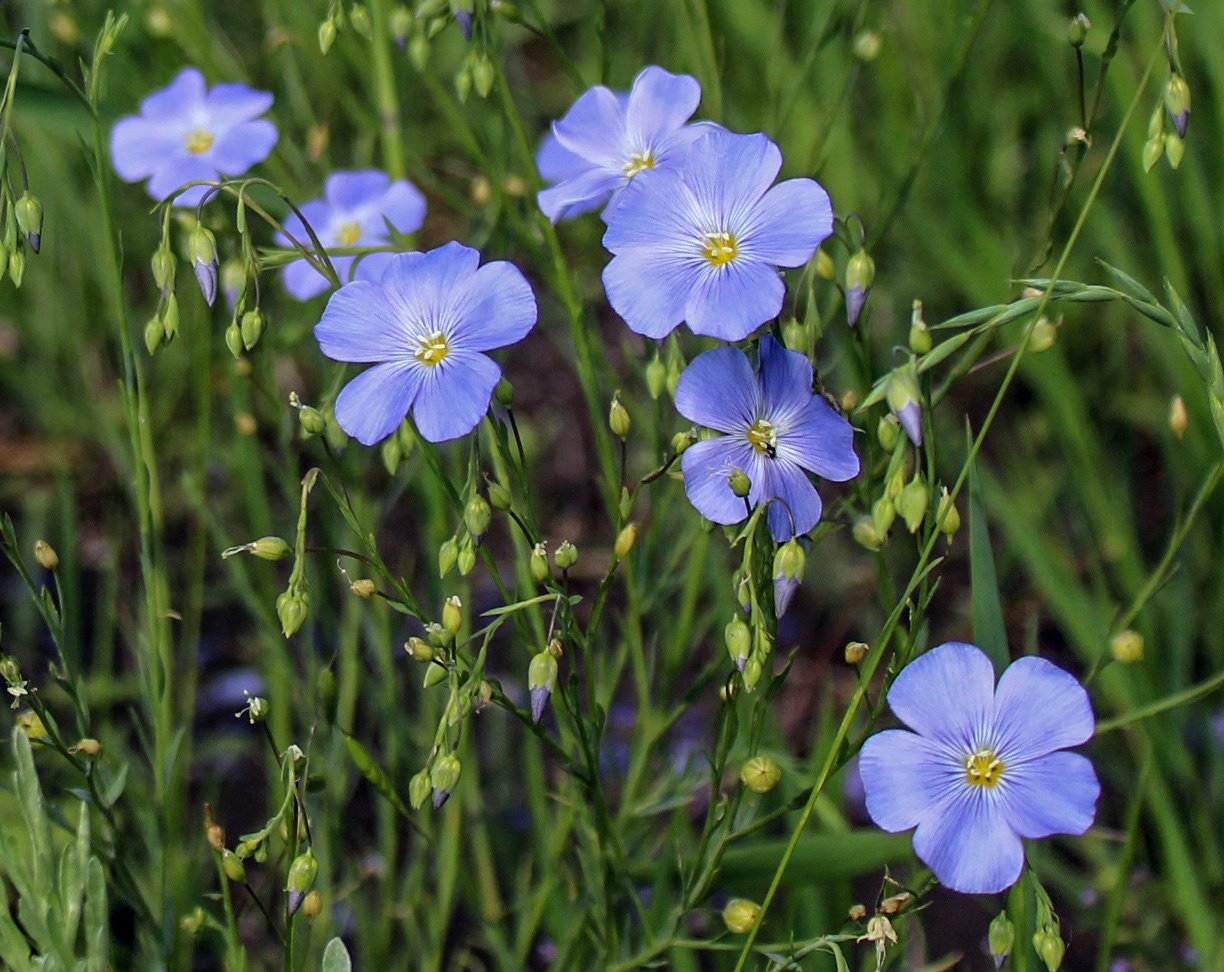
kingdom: Plantae
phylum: Tracheophyta
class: Magnoliopsida
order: Malpighiales
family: Linaceae
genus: Linum
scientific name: Linum perenne
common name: Blue flax
